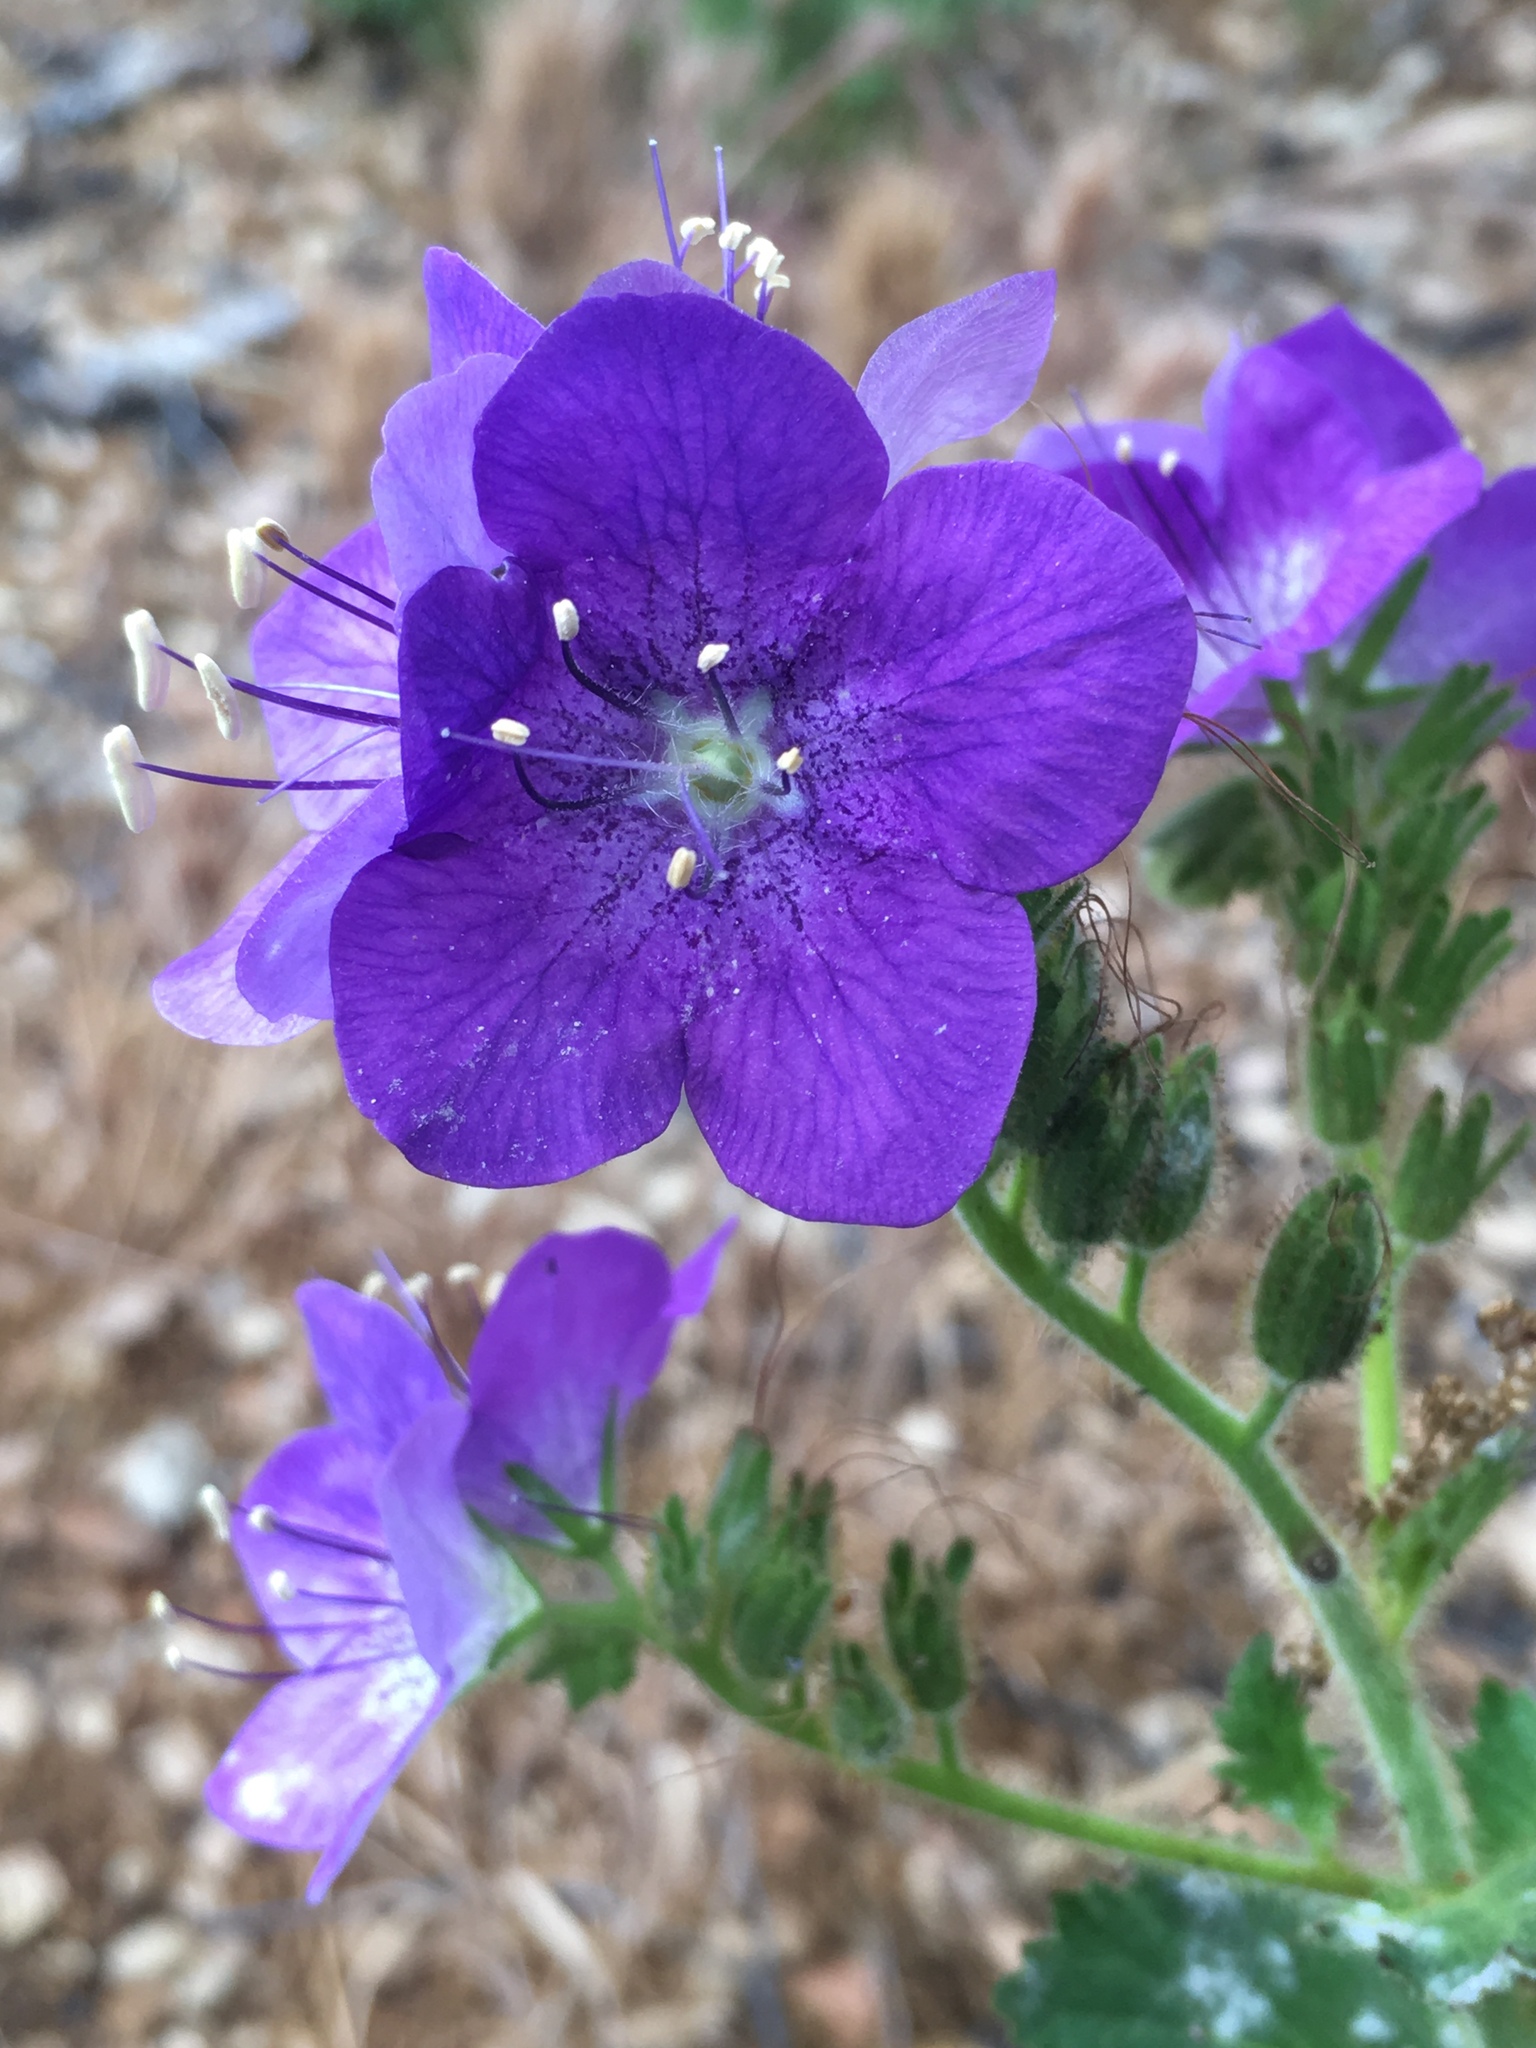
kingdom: Plantae
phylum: Tracheophyta
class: Magnoliopsida
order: Boraginales
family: Hydrophyllaceae
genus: Phacelia
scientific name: Phacelia grandiflora
